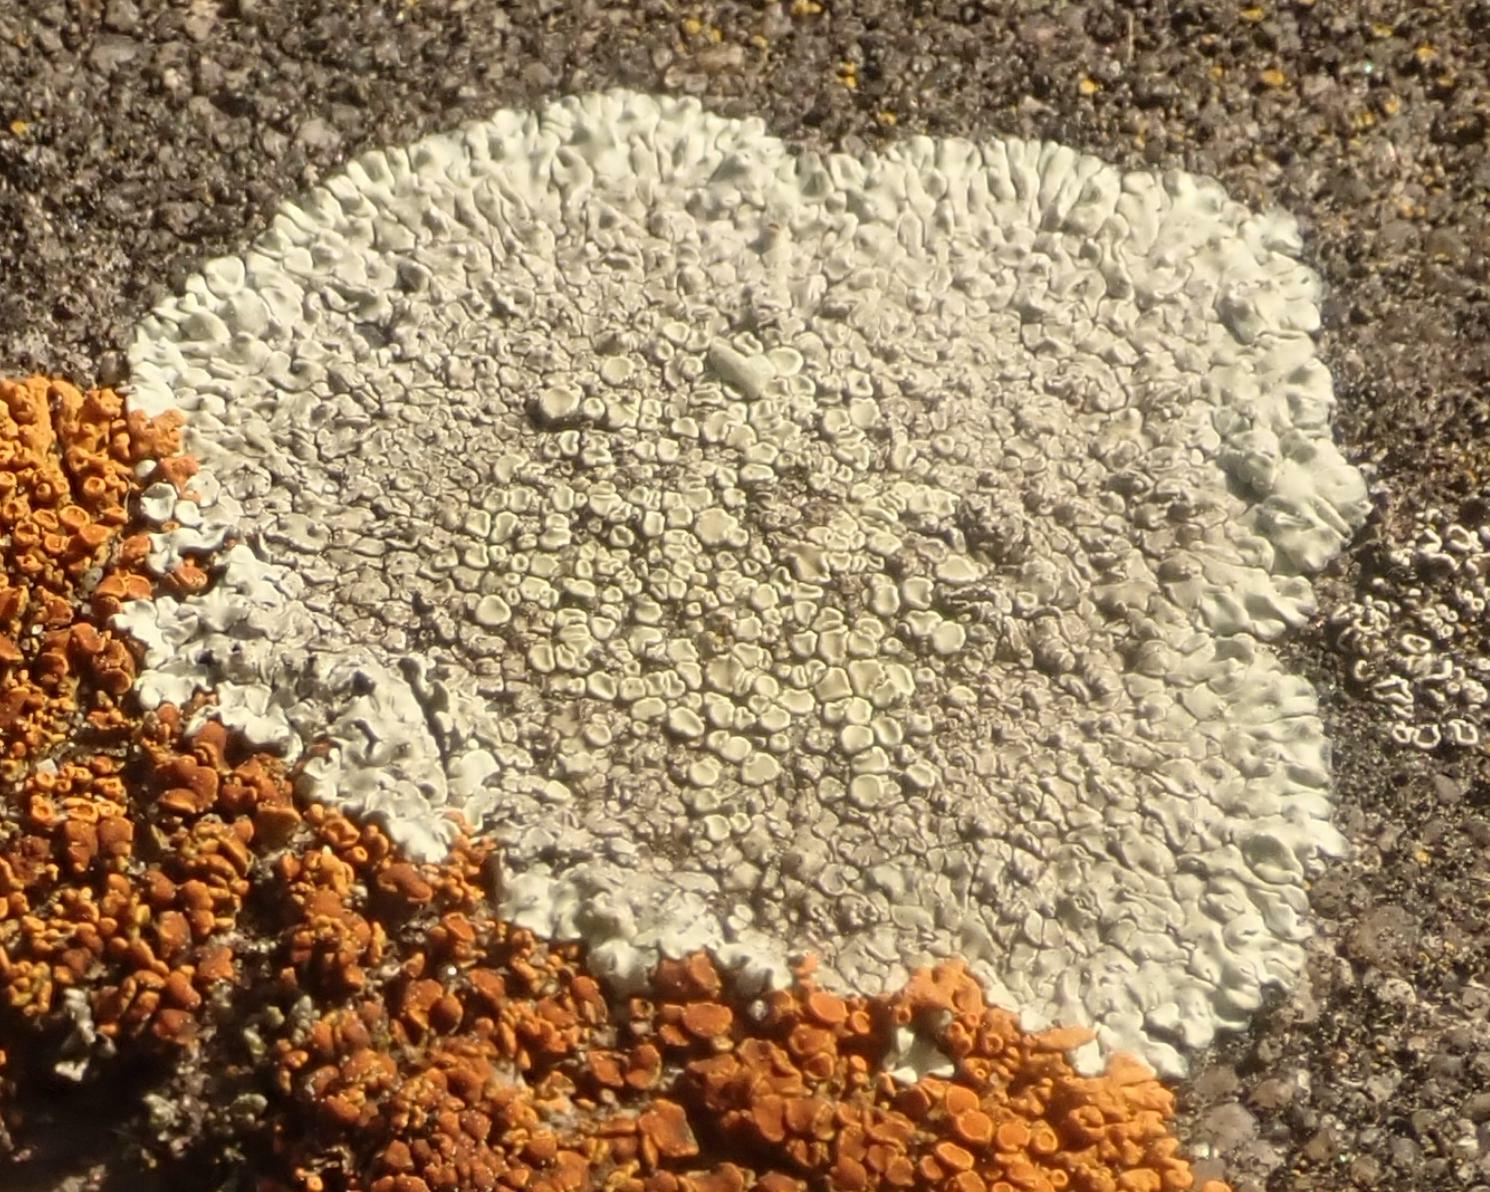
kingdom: Fungi
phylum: Ascomycota
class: Lecanoromycetes
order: Lecanorales
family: Lecanoraceae
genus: Protoparmeliopsis
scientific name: Protoparmeliopsis muralis
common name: Stonewall rim lichen
